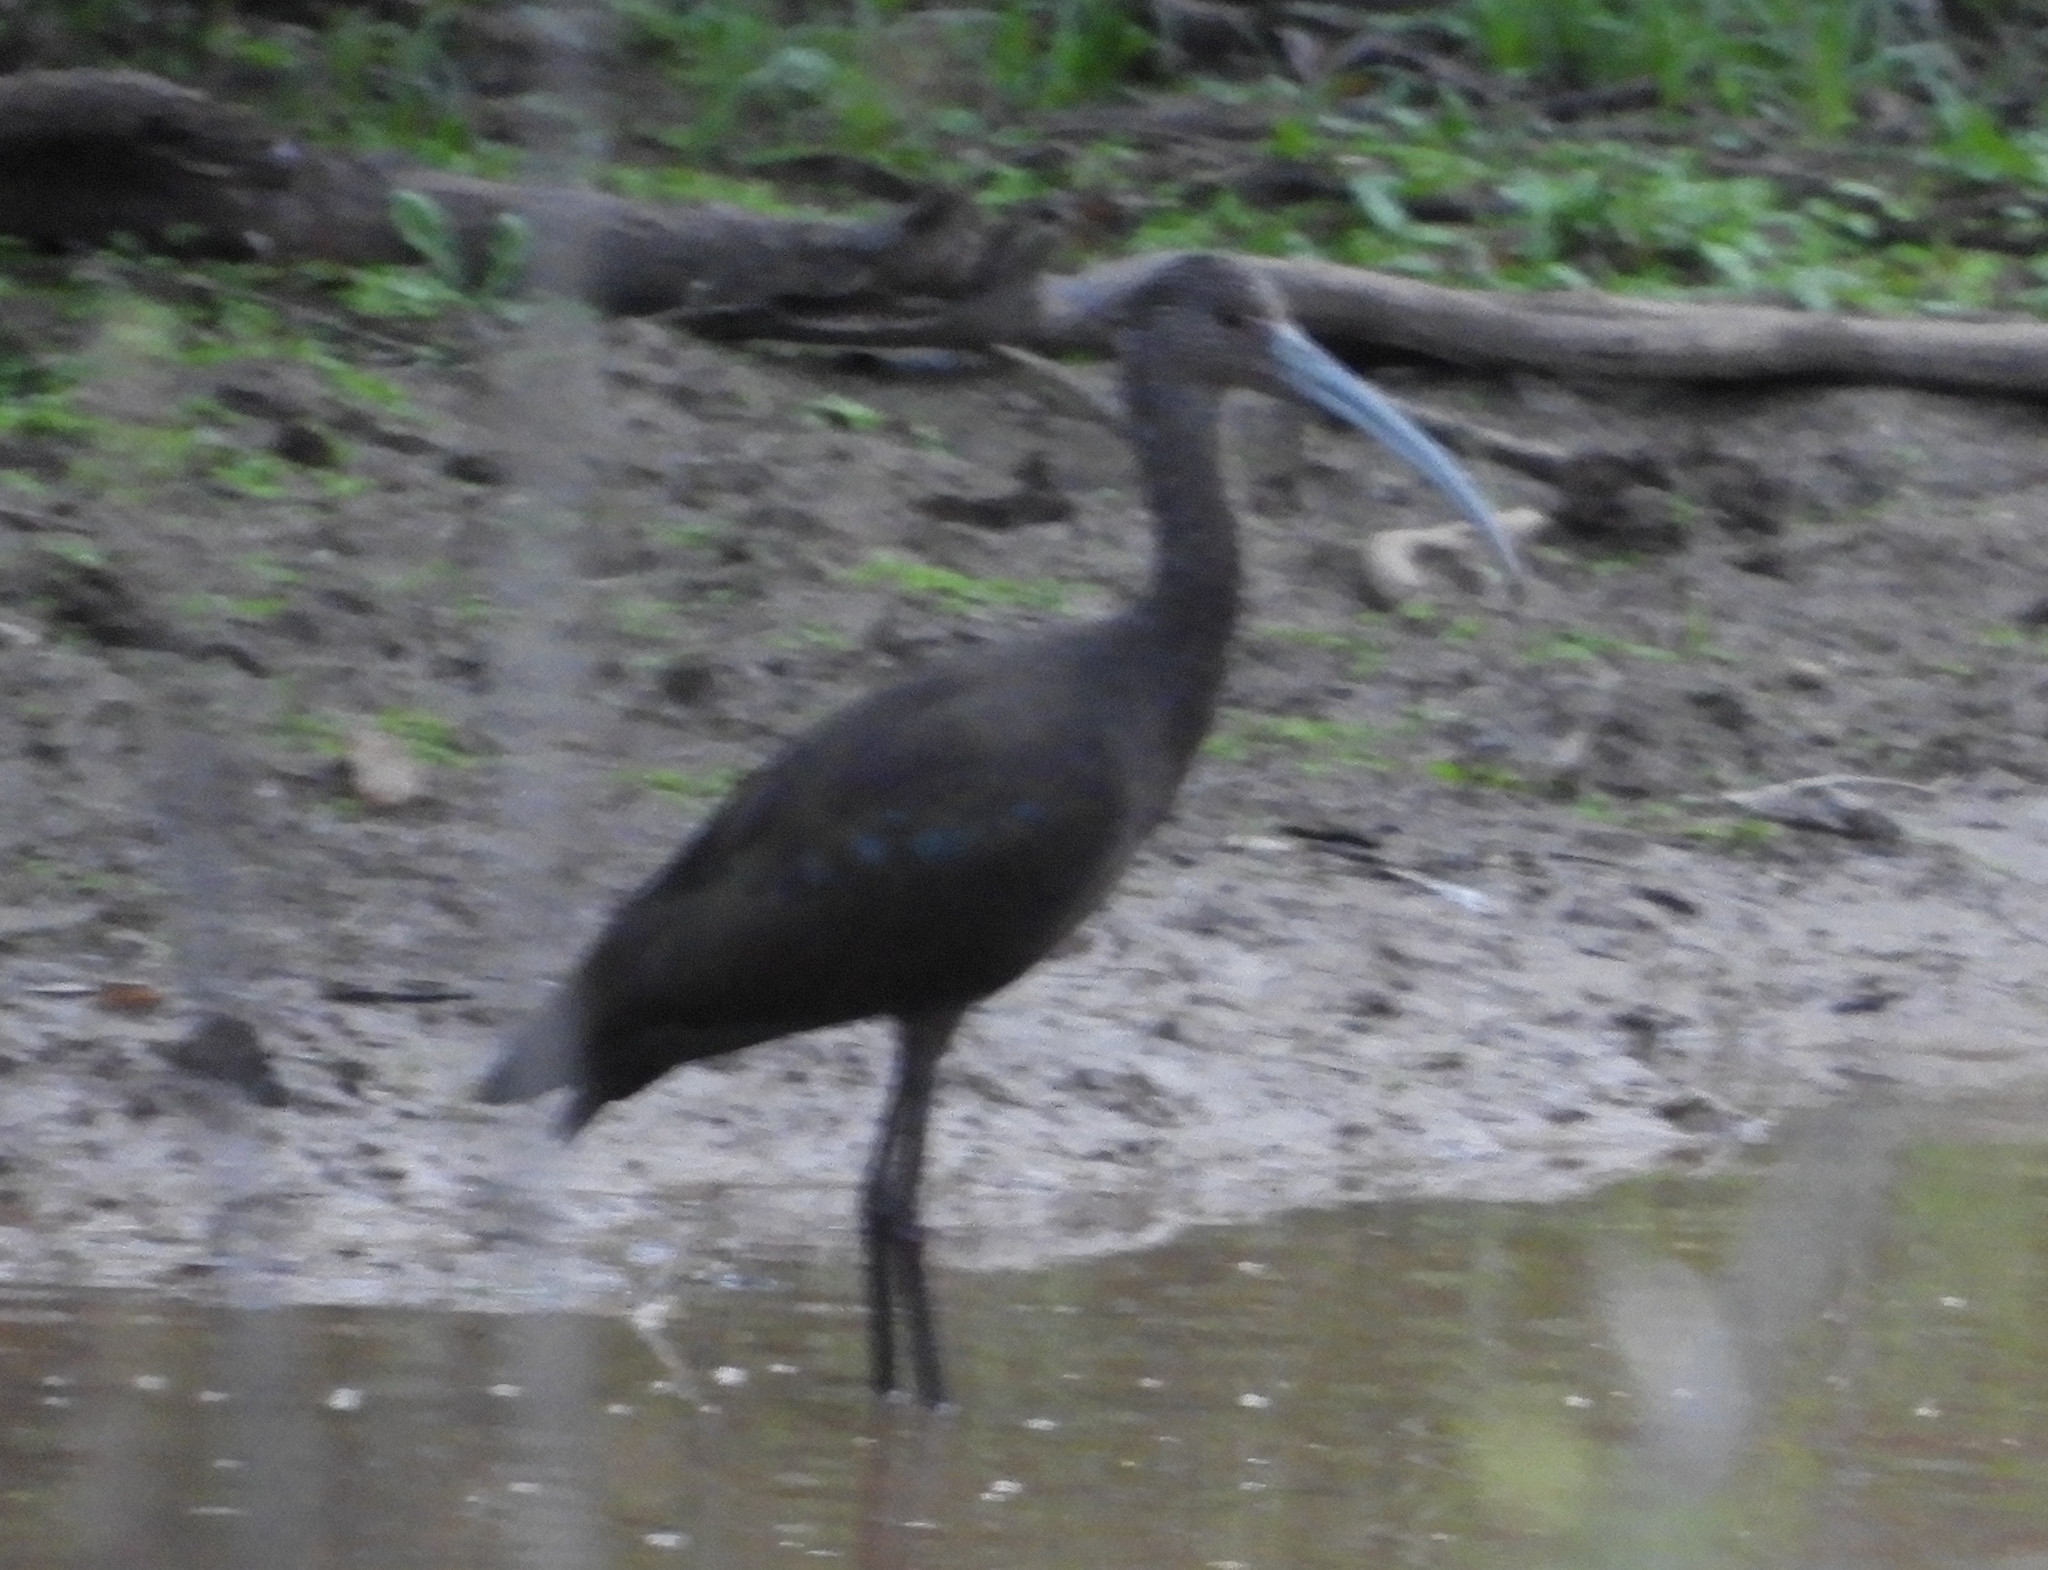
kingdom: Animalia
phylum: Chordata
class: Aves
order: Pelecaniformes
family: Threskiornithidae
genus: Plegadis
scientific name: Plegadis chihi
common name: White-faced ibis
